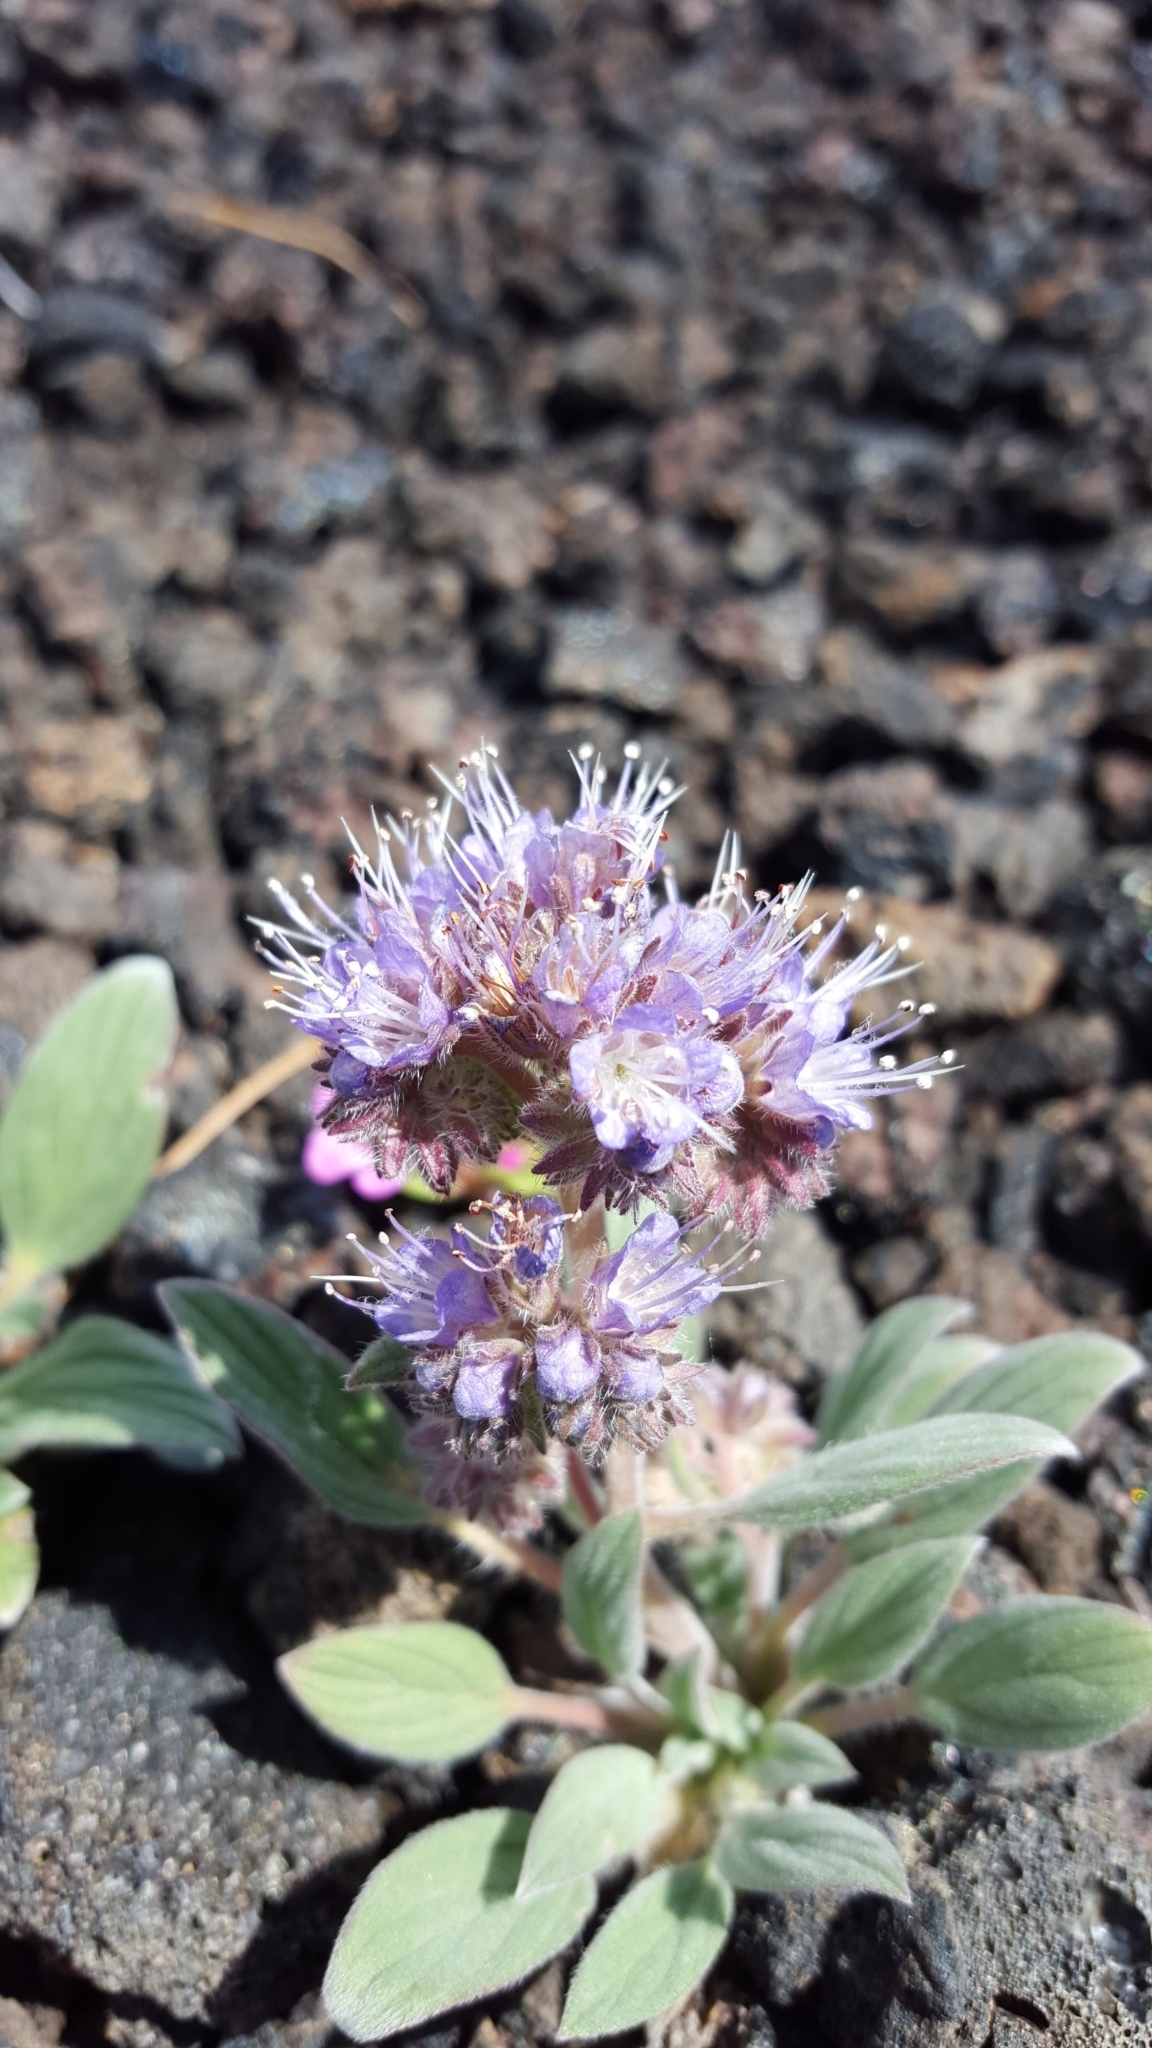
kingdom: Plantae
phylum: Tracheophyta
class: Magnoliopsida
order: Boraginales
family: Hydrophyllaceae
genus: Phacelia
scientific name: Phacelia hastata
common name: Silver-leaved phacelia
